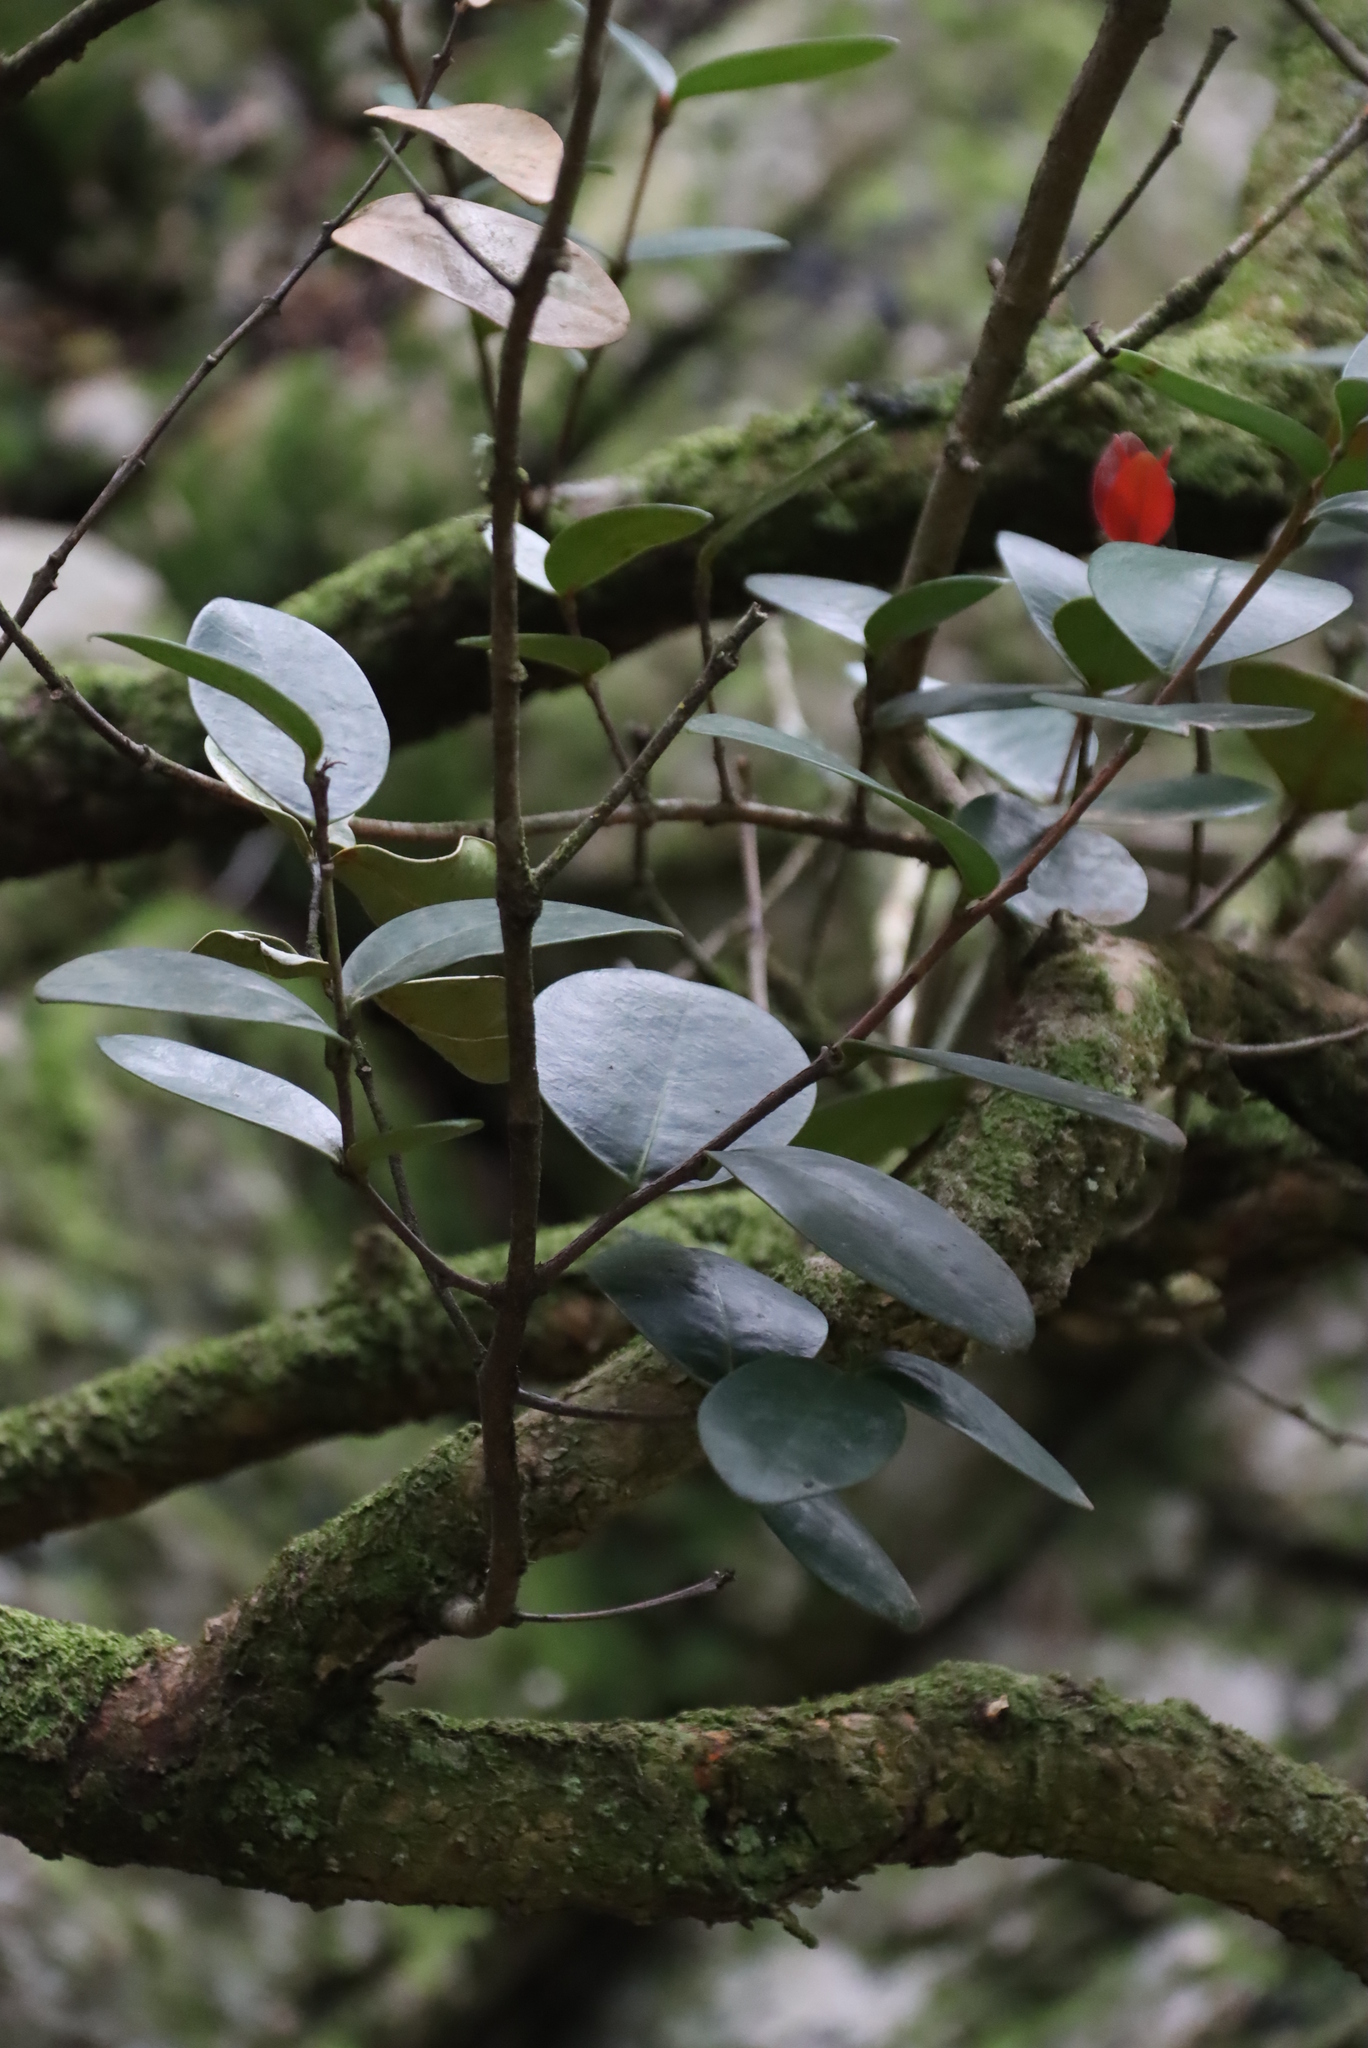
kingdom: Plantae
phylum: Tracheophyta
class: Magnoliopsida
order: Celastrales
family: Celastraceae
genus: Maurocenia
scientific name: Maurocenia frangula
